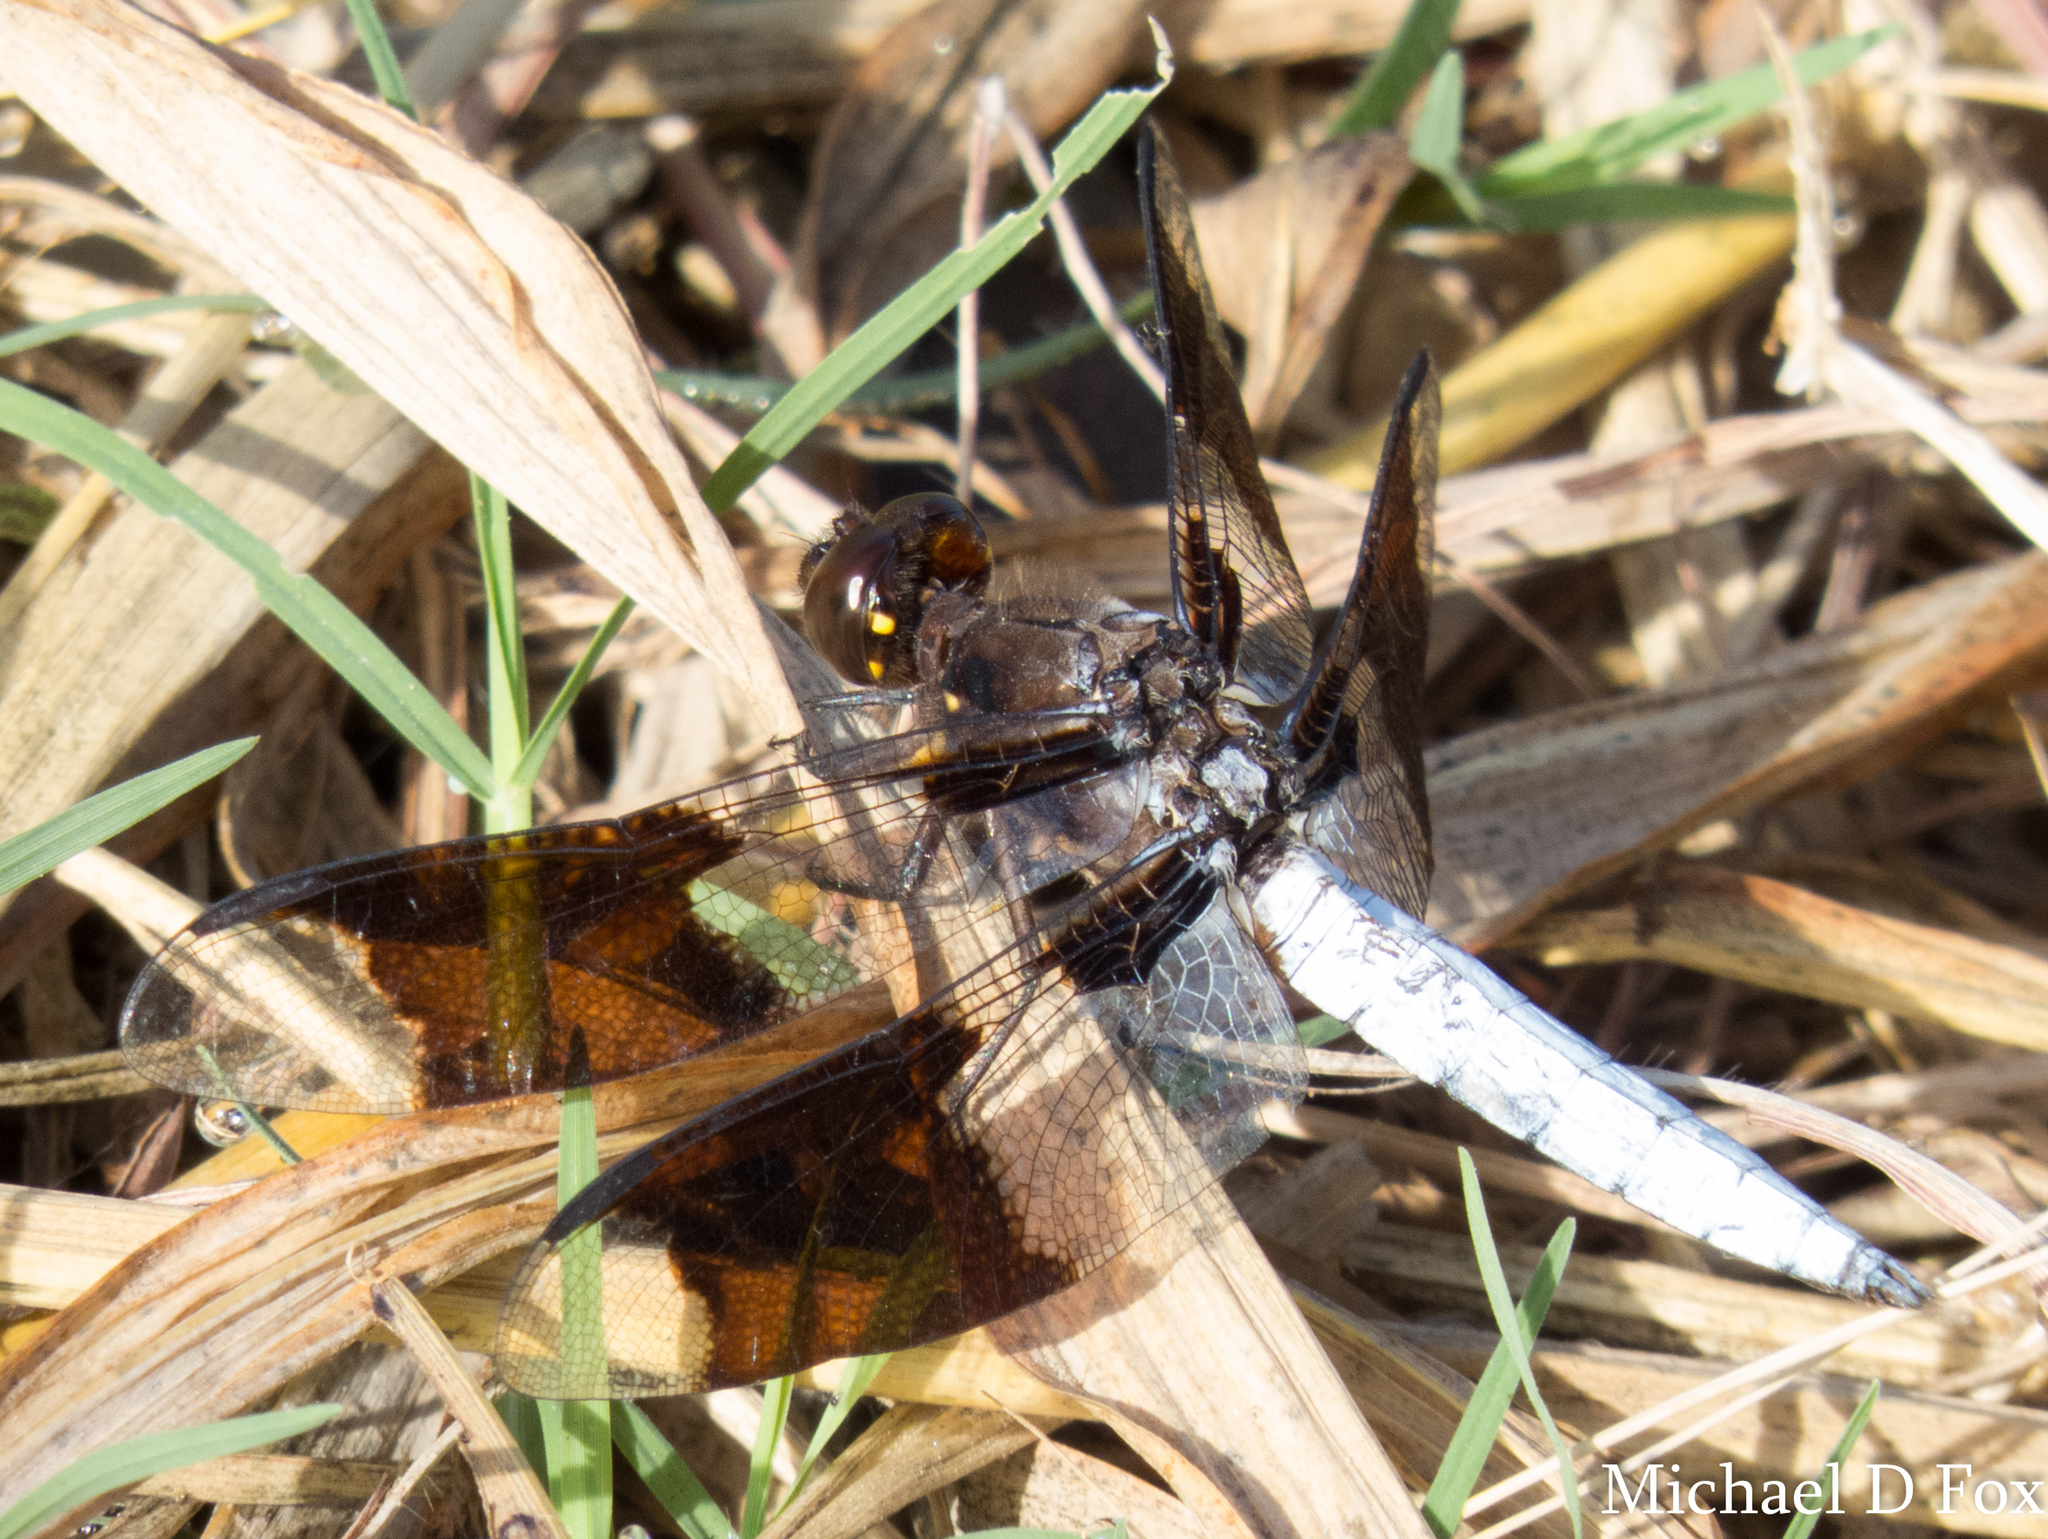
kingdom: Animalia
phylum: Arthropoda
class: Insecta
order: Odonata
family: Libellulidae
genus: Plathemis
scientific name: Plathemis lydia
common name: Common whitetail
